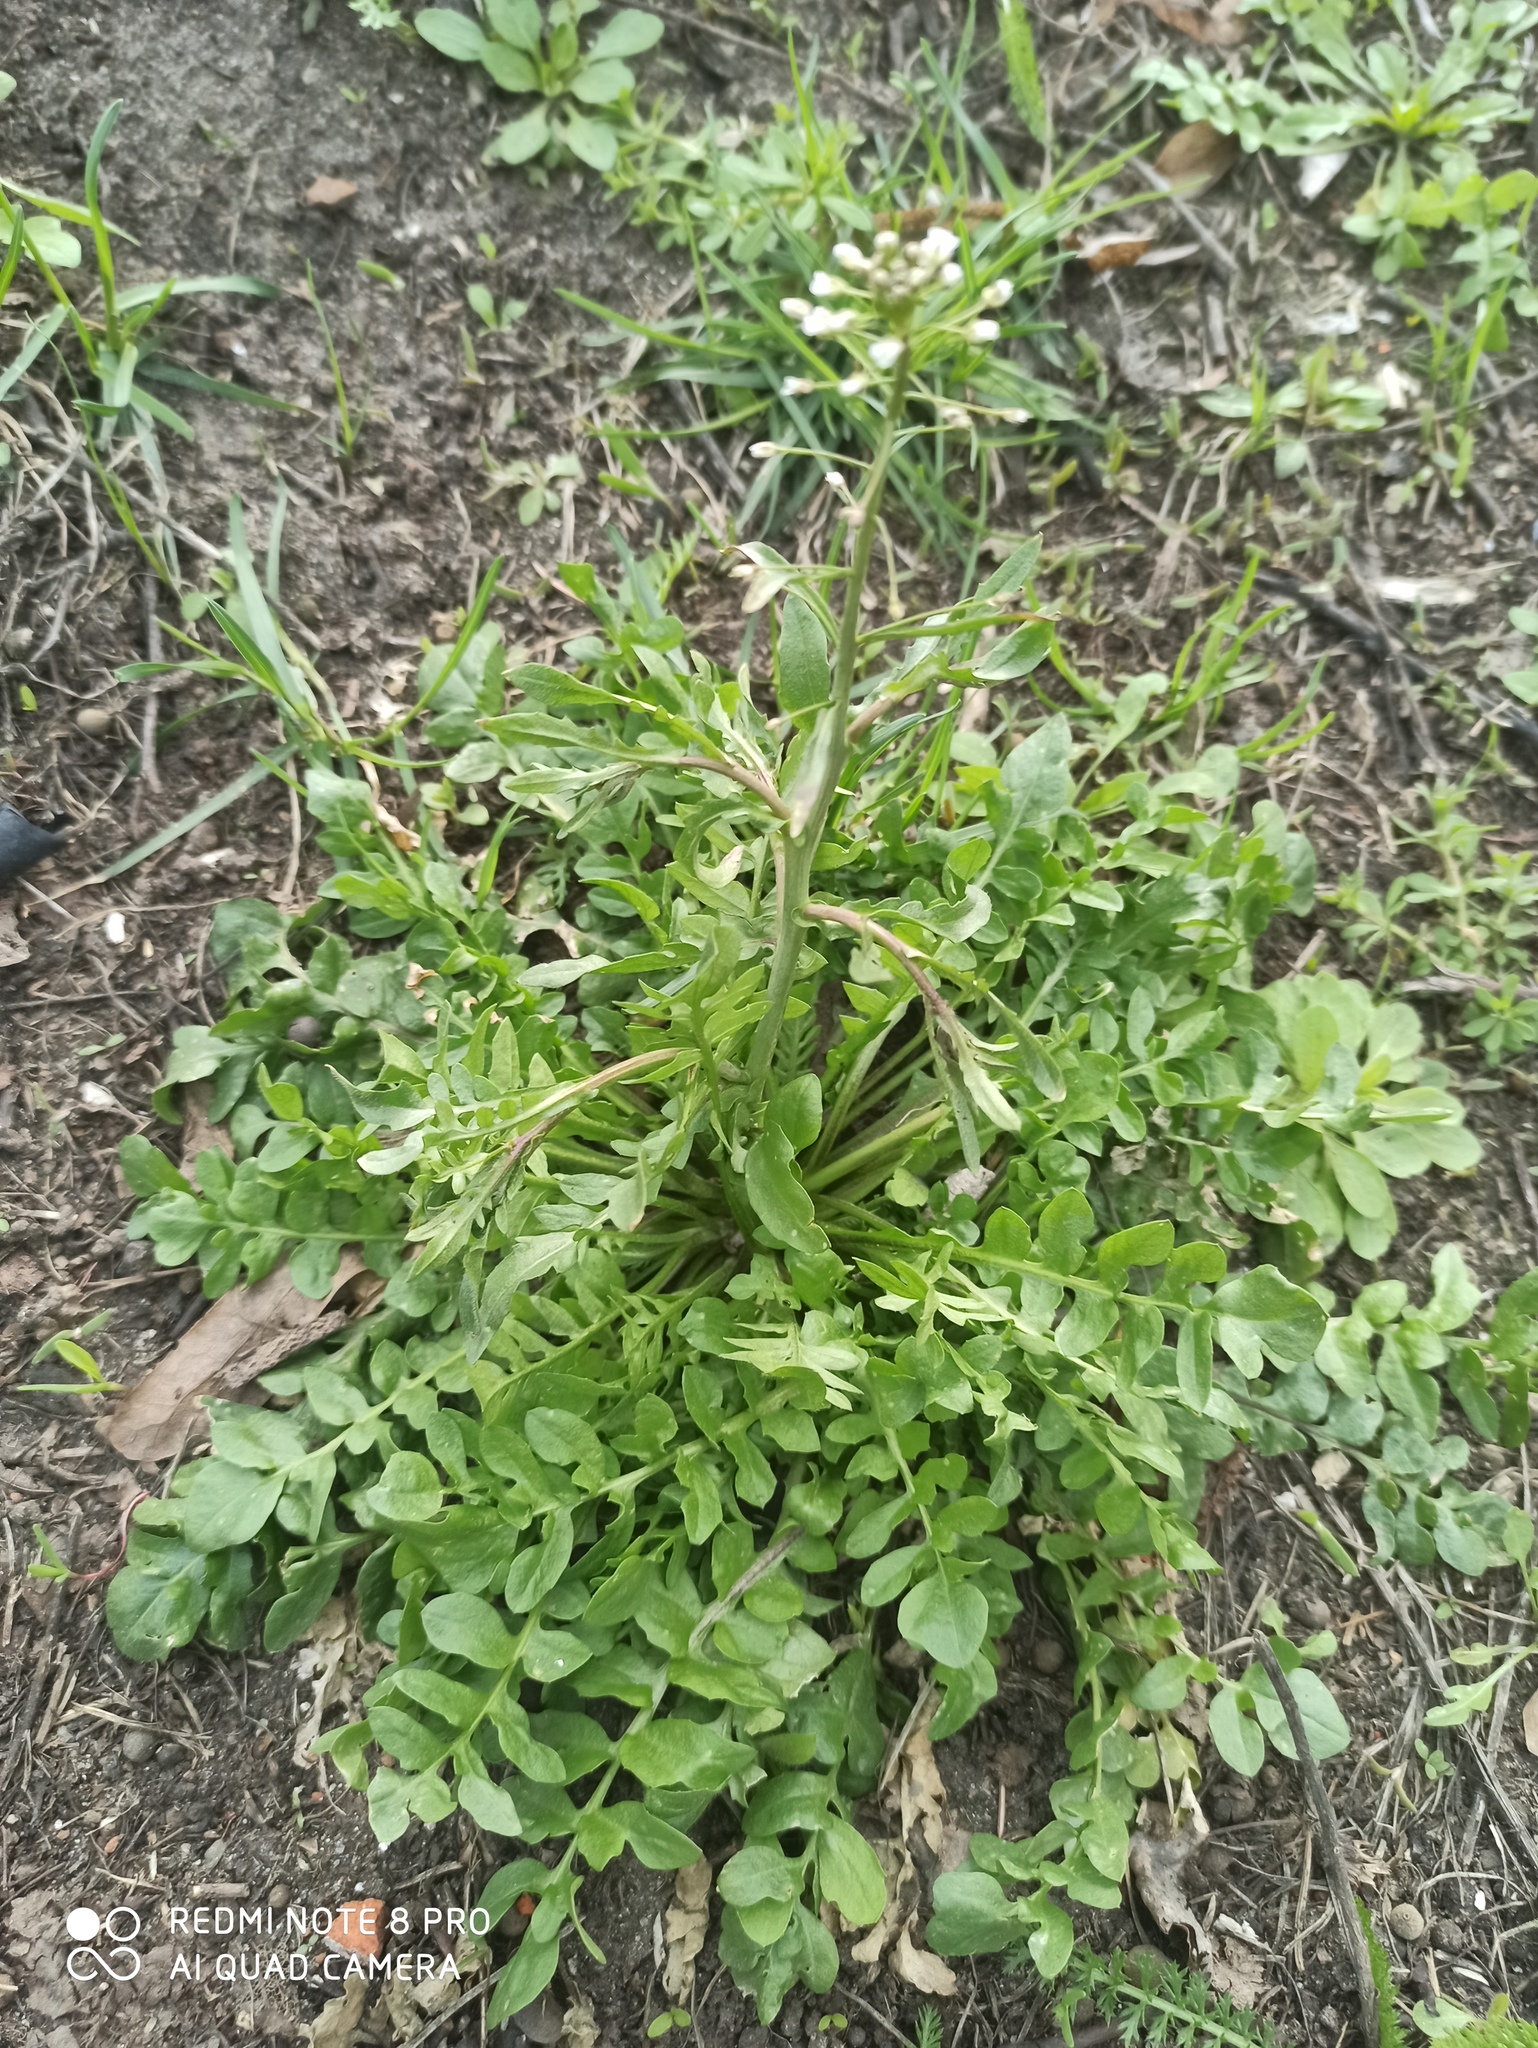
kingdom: Plantae
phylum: Tracheophyta
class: Magnoliopsida
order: Brassicales
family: Brassicaceae
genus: Capsella
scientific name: Capsella bursa-pastoris
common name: Shepherd's purse
